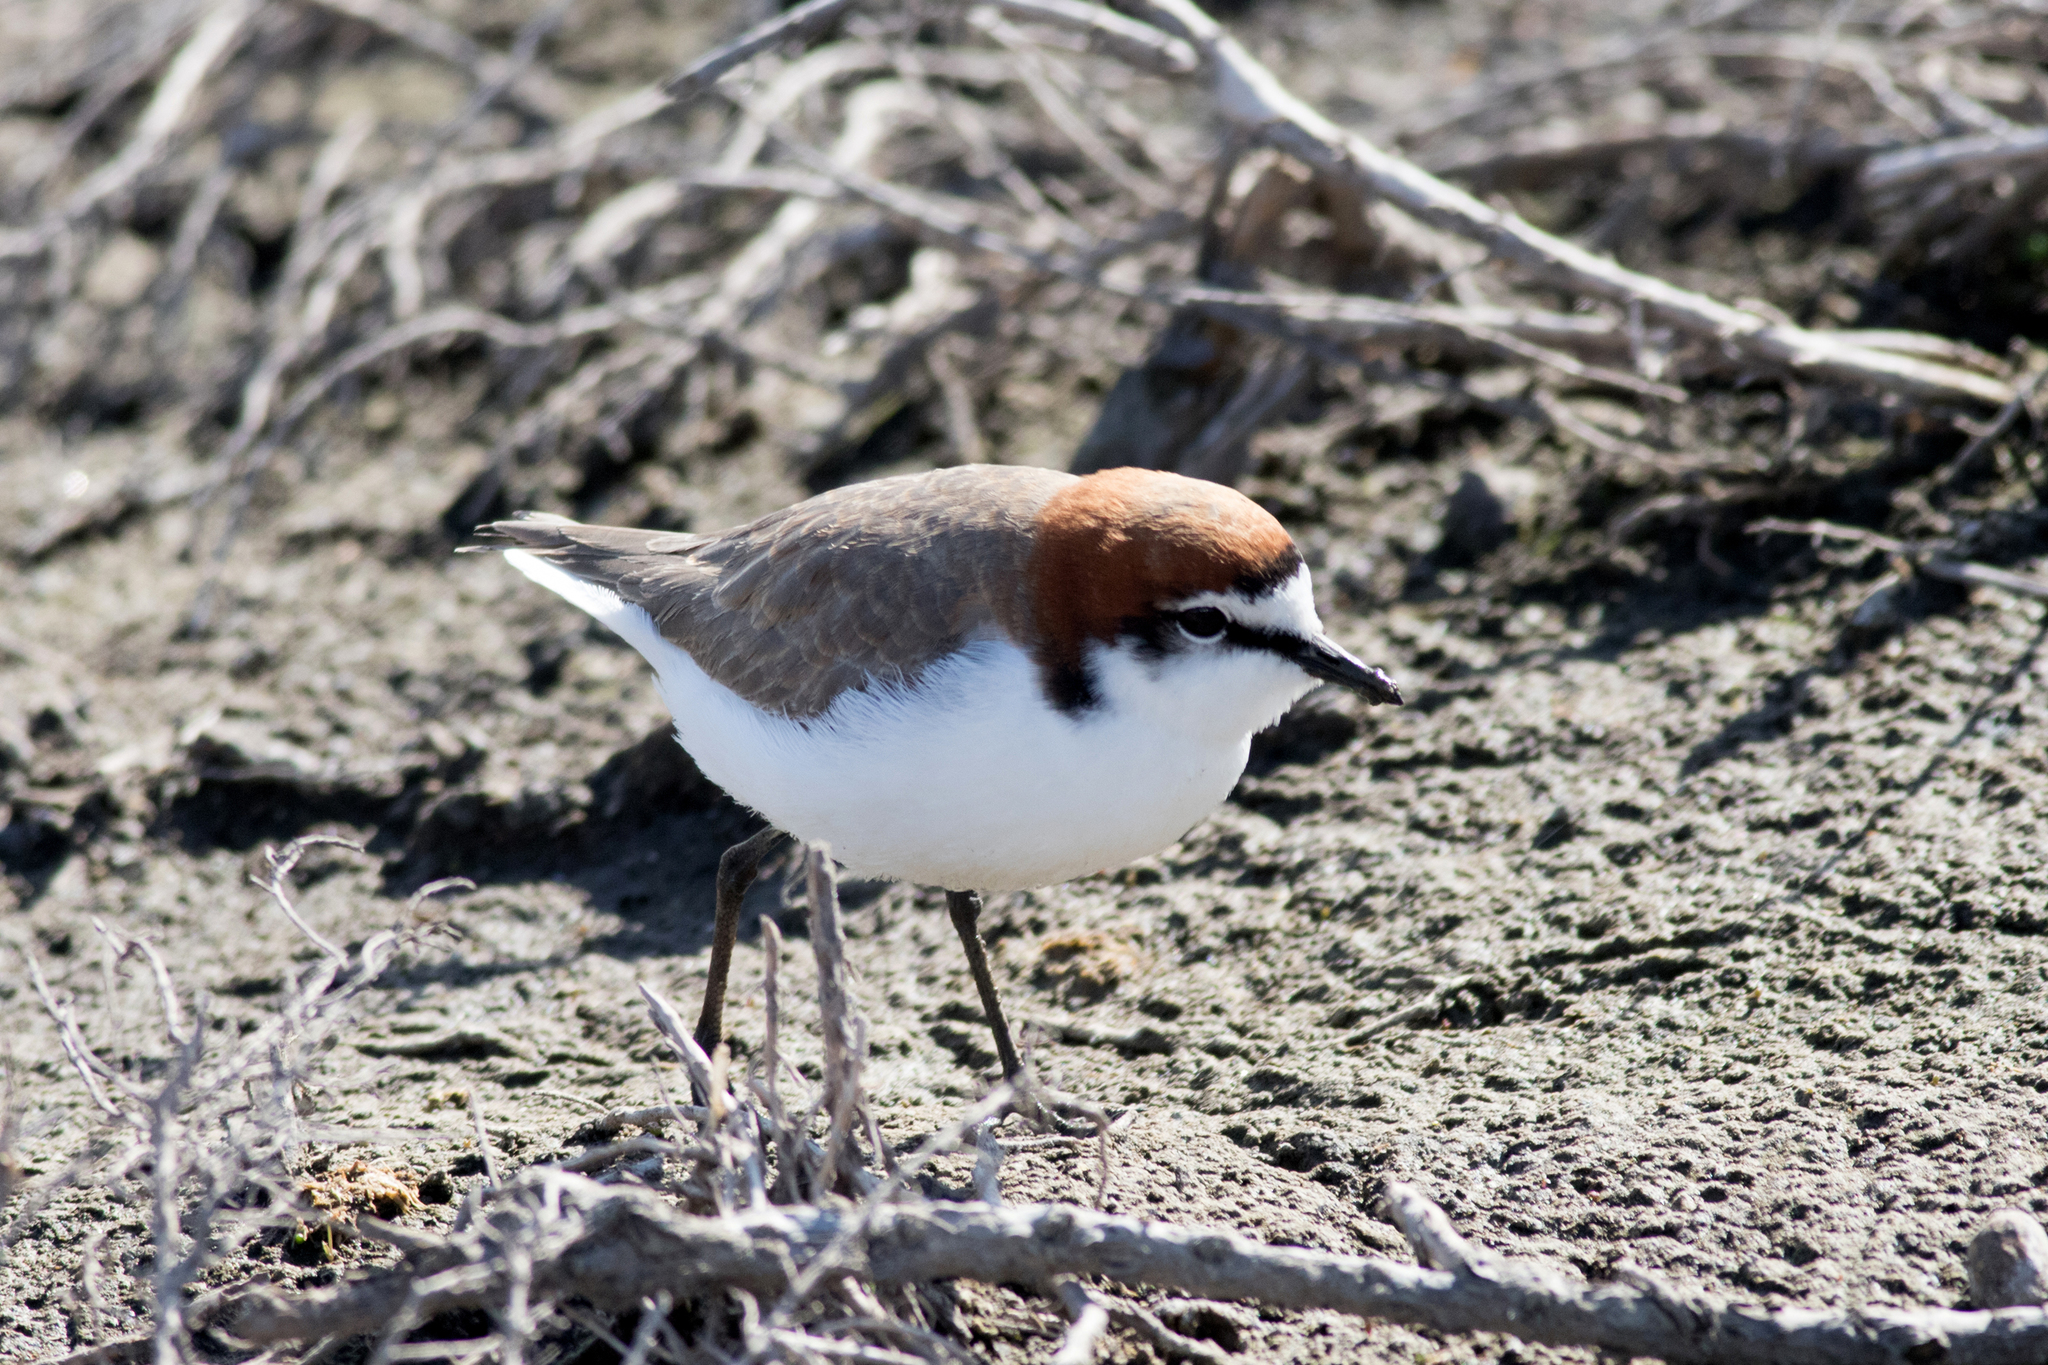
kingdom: Animalia
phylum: Chordata
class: Aves
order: Charadriiformes
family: Charadriidae
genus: Anarhynchus
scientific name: Anarhynchus
